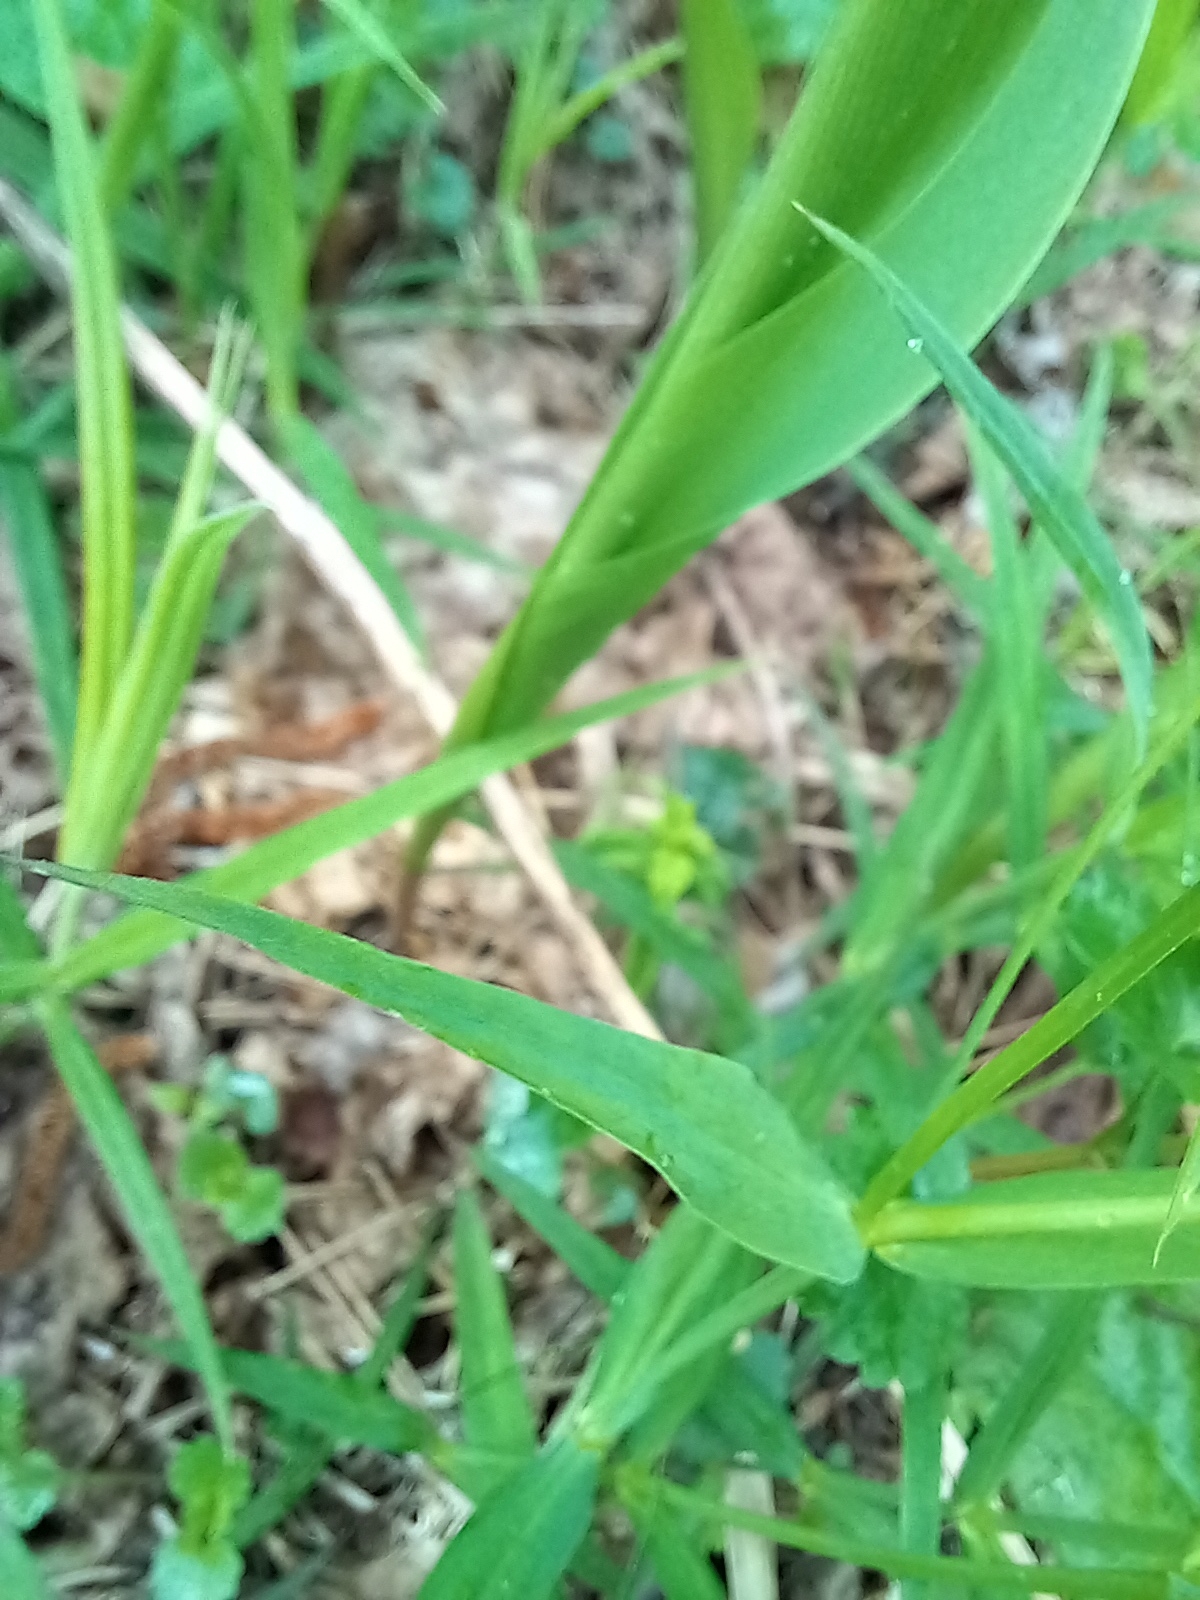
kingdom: Plantae
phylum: Tracheophyta
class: Magnoliopsida
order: Caryophyllales
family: Caryophyllaceae
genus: Rabelera
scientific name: Rabelera holostea
